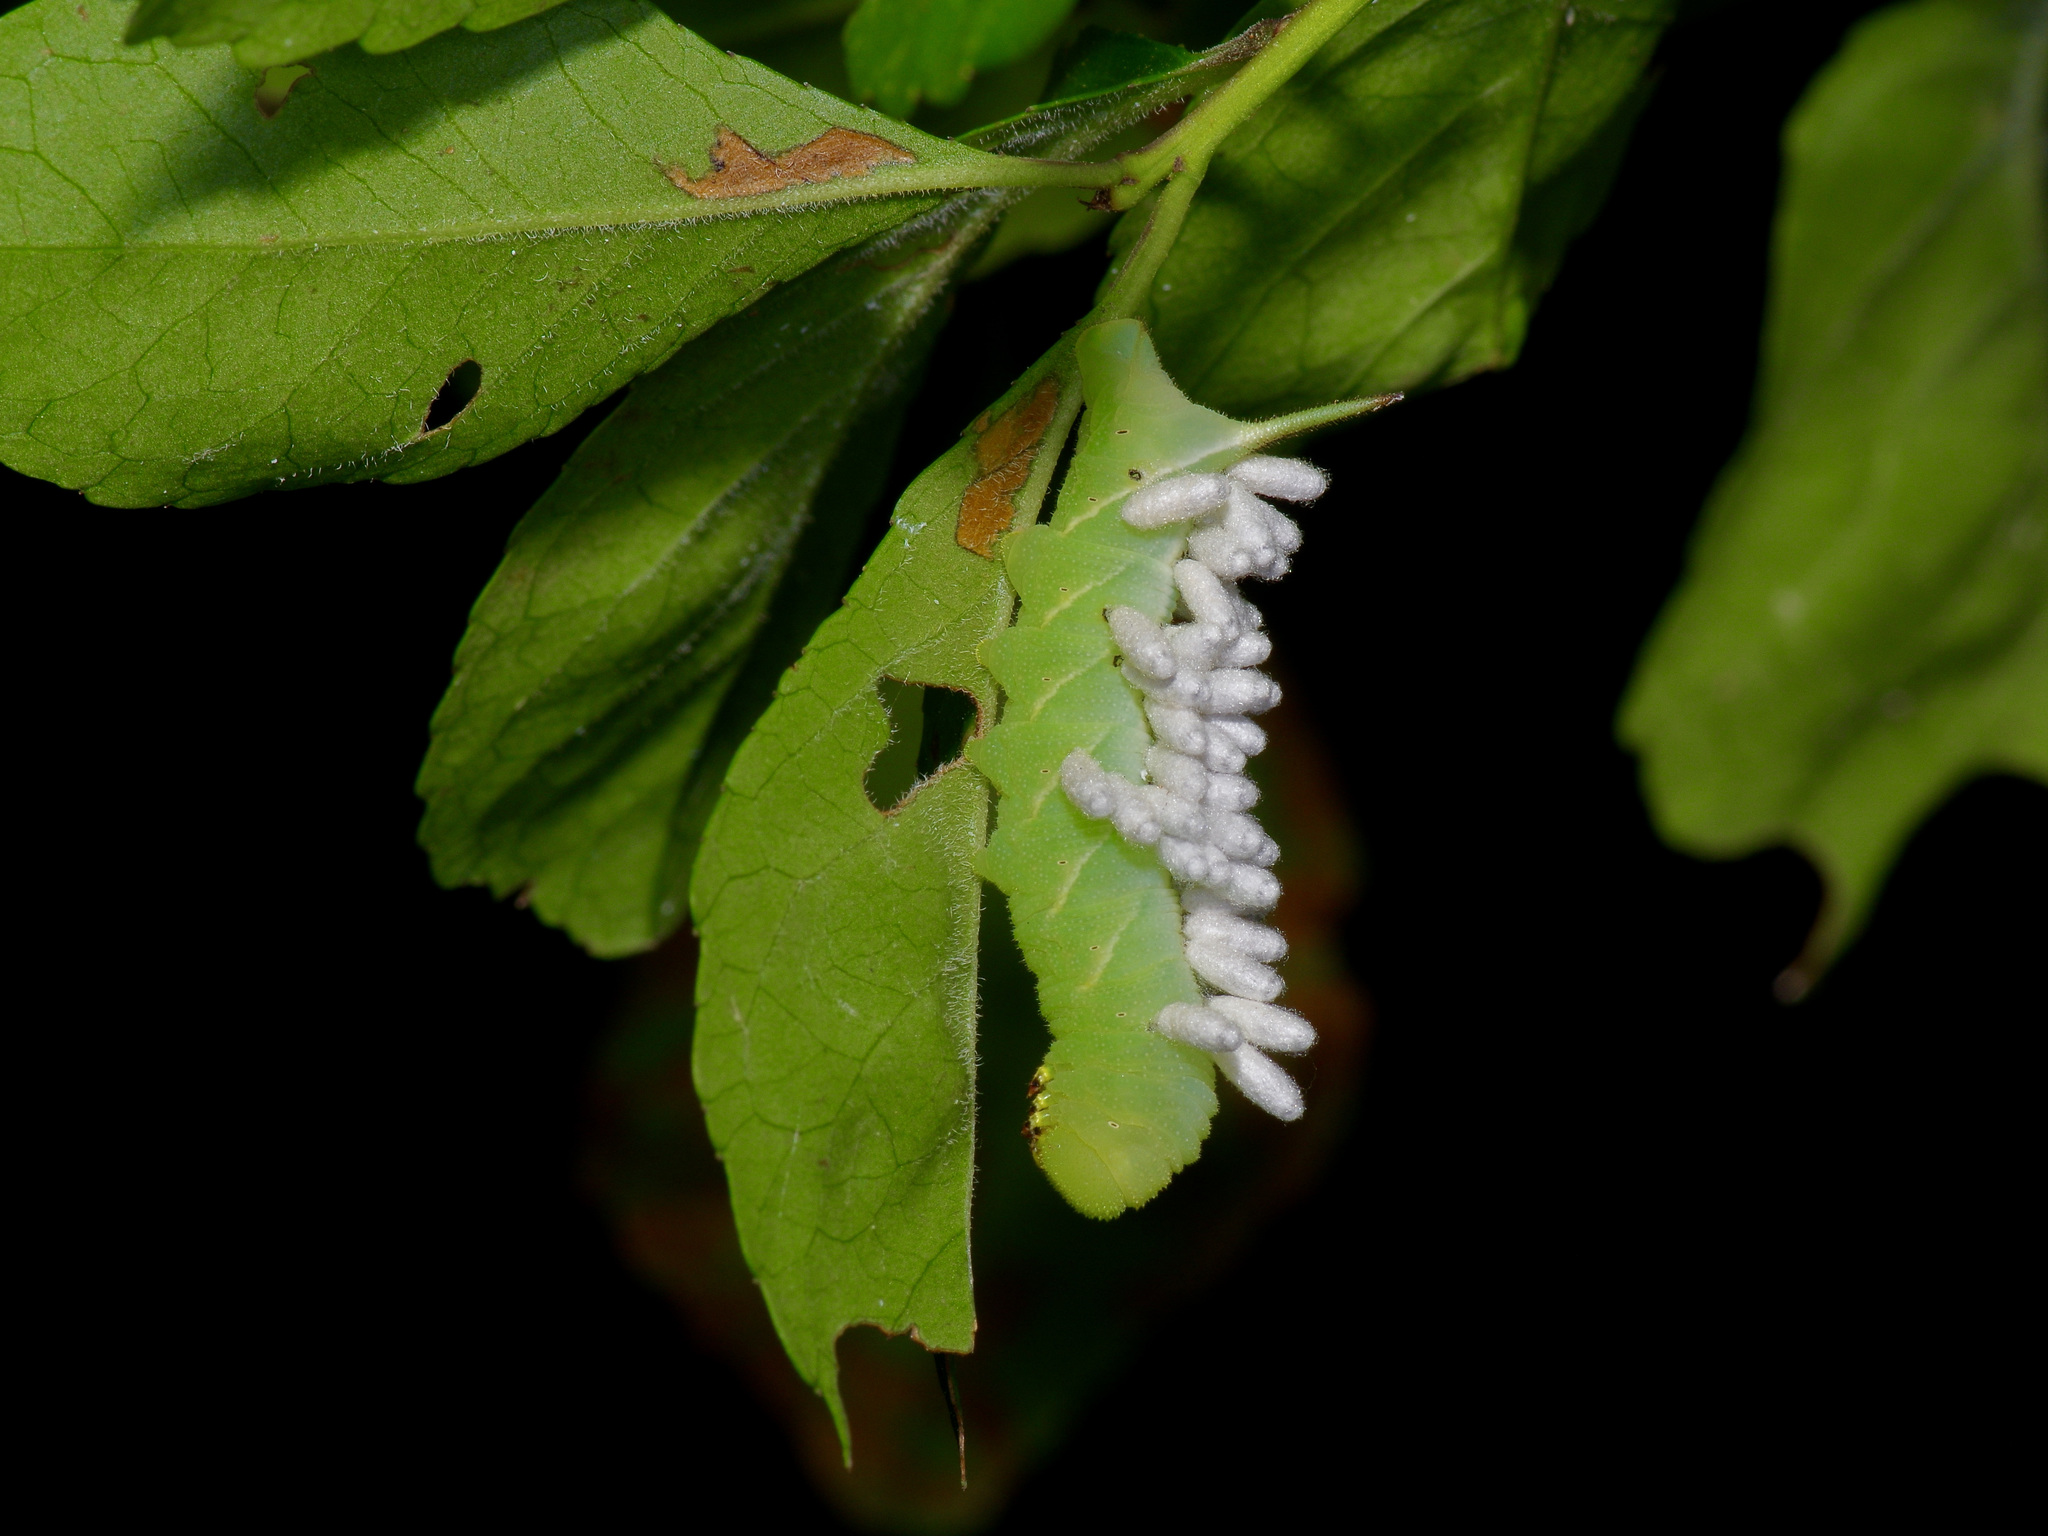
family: Polydnaviriformidae
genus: Bracoviriform
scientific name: Bracoviriform congregatae
